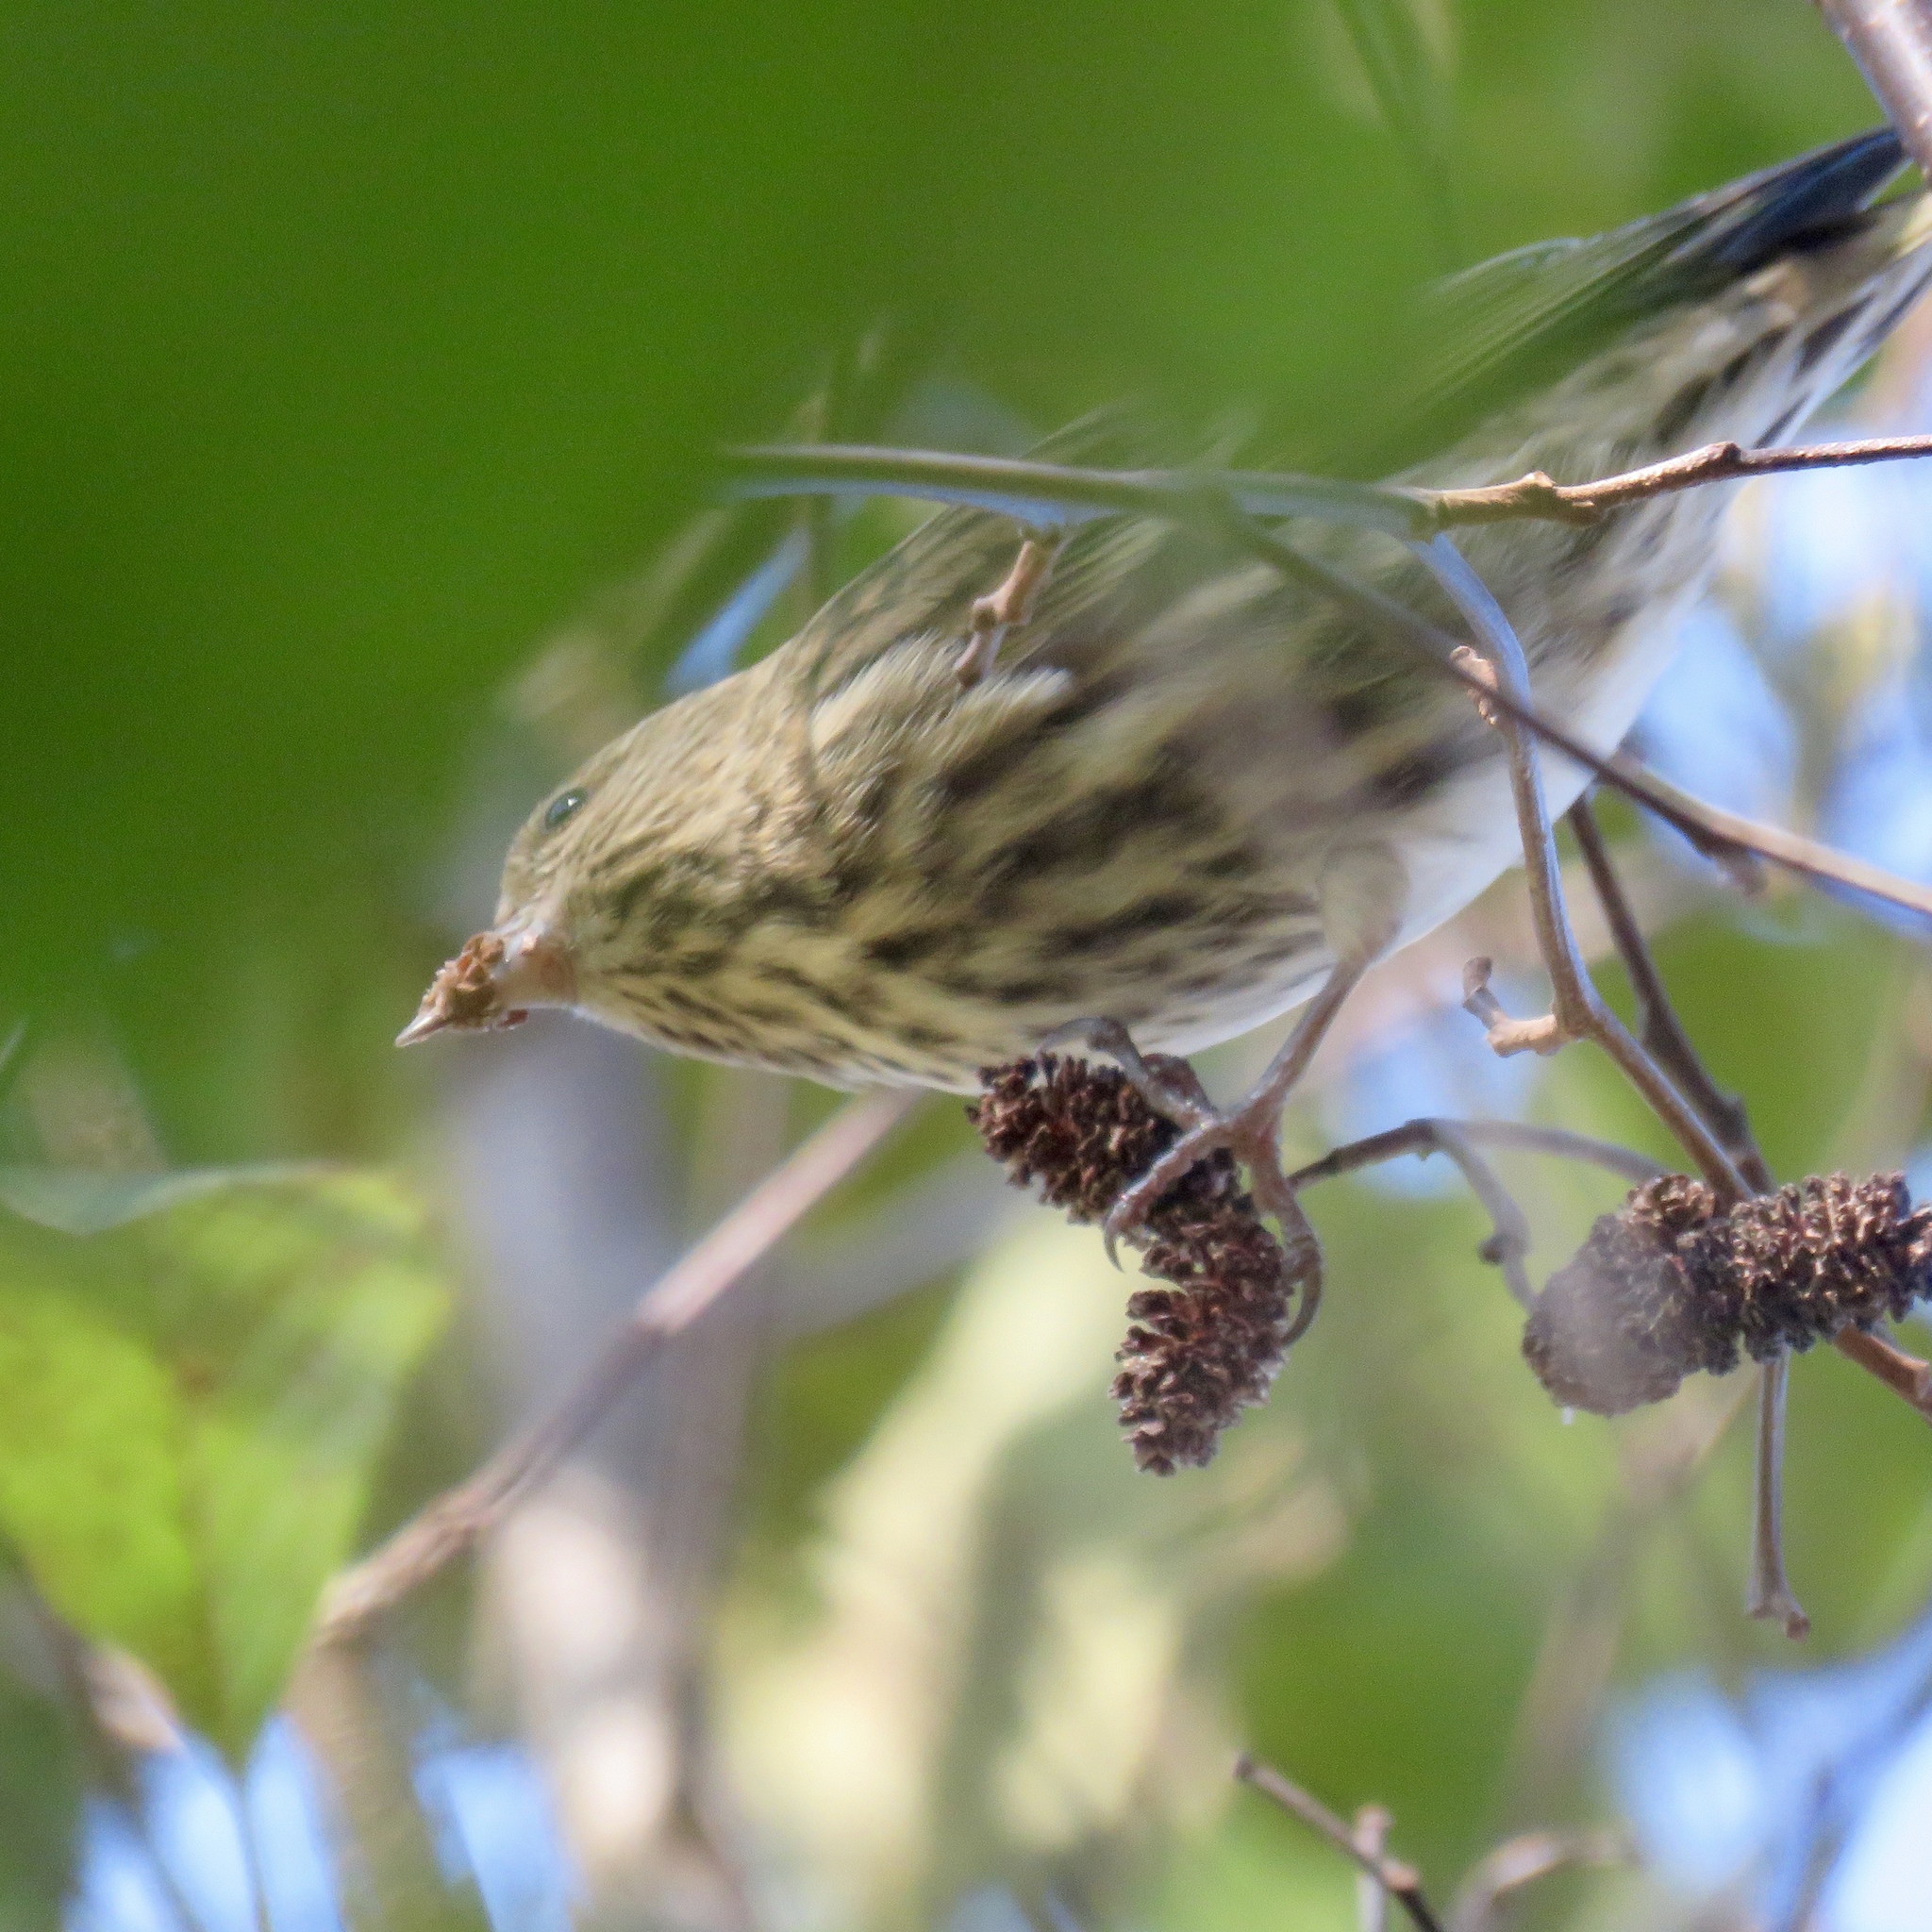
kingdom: Animalia
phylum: Chordata
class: Aves
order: Passeriformes
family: Fringillidae
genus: Spinus
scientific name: Spinus pinus
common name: Pine siskin
